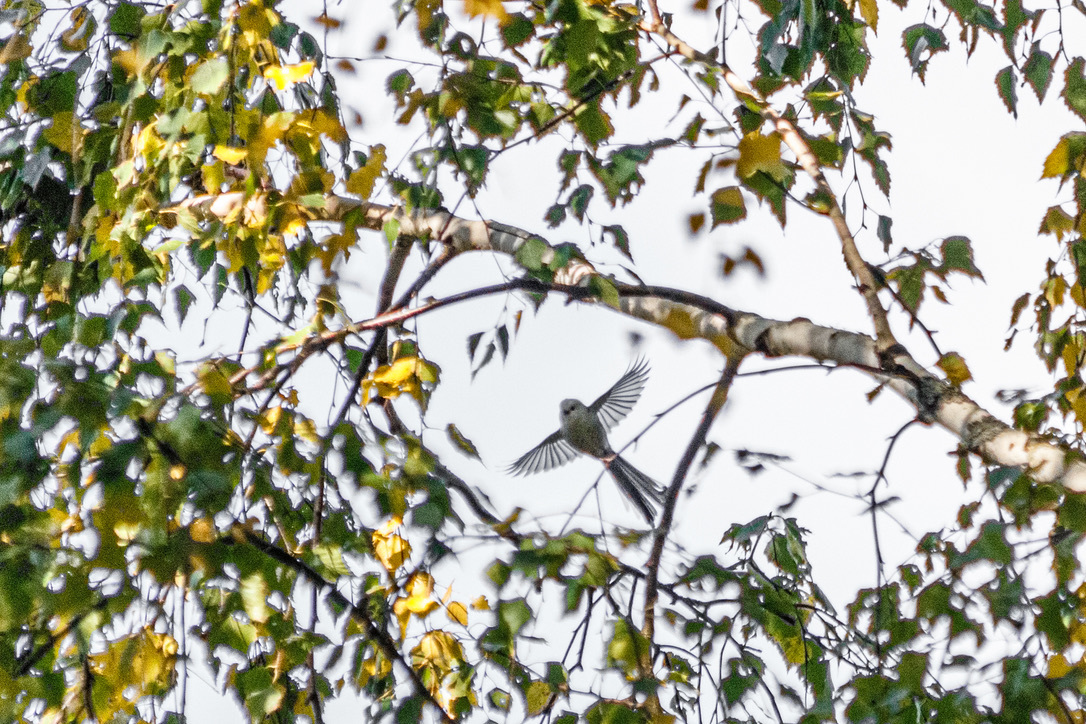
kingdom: Animalia
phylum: Chordata
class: Aves
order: Passeriformes
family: Aegithalidae
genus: Aegithalos
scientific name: Aegithalos caudatus
